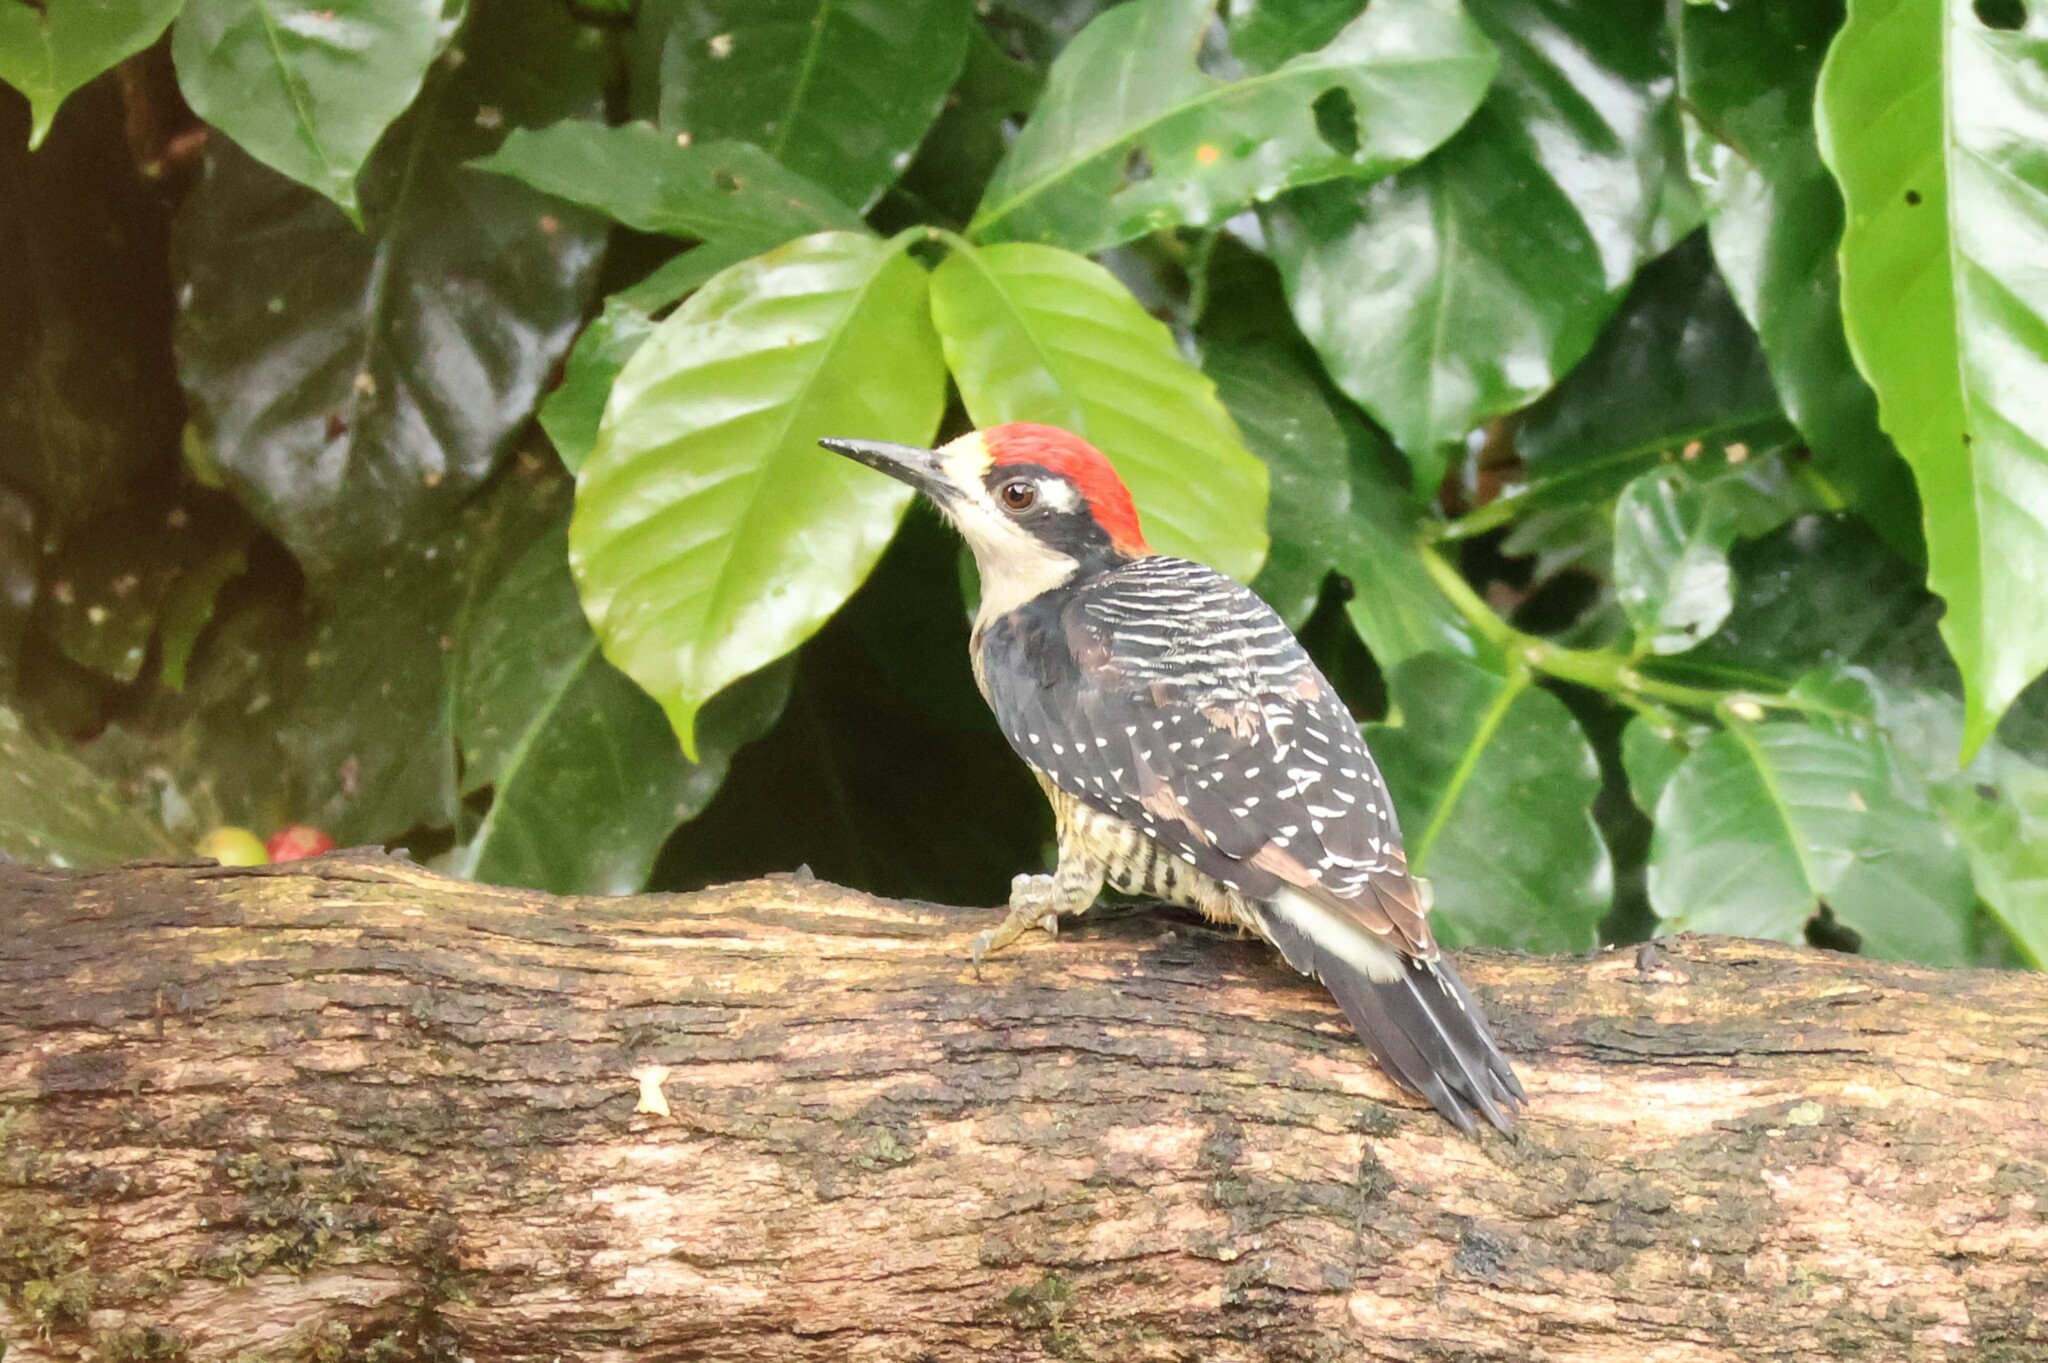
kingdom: Animalia
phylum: Chordata
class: Aves
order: Piciformes
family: Picidae
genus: Melanerpes
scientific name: Melanerpes pucherani
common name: Black-cheeked woodpecker
